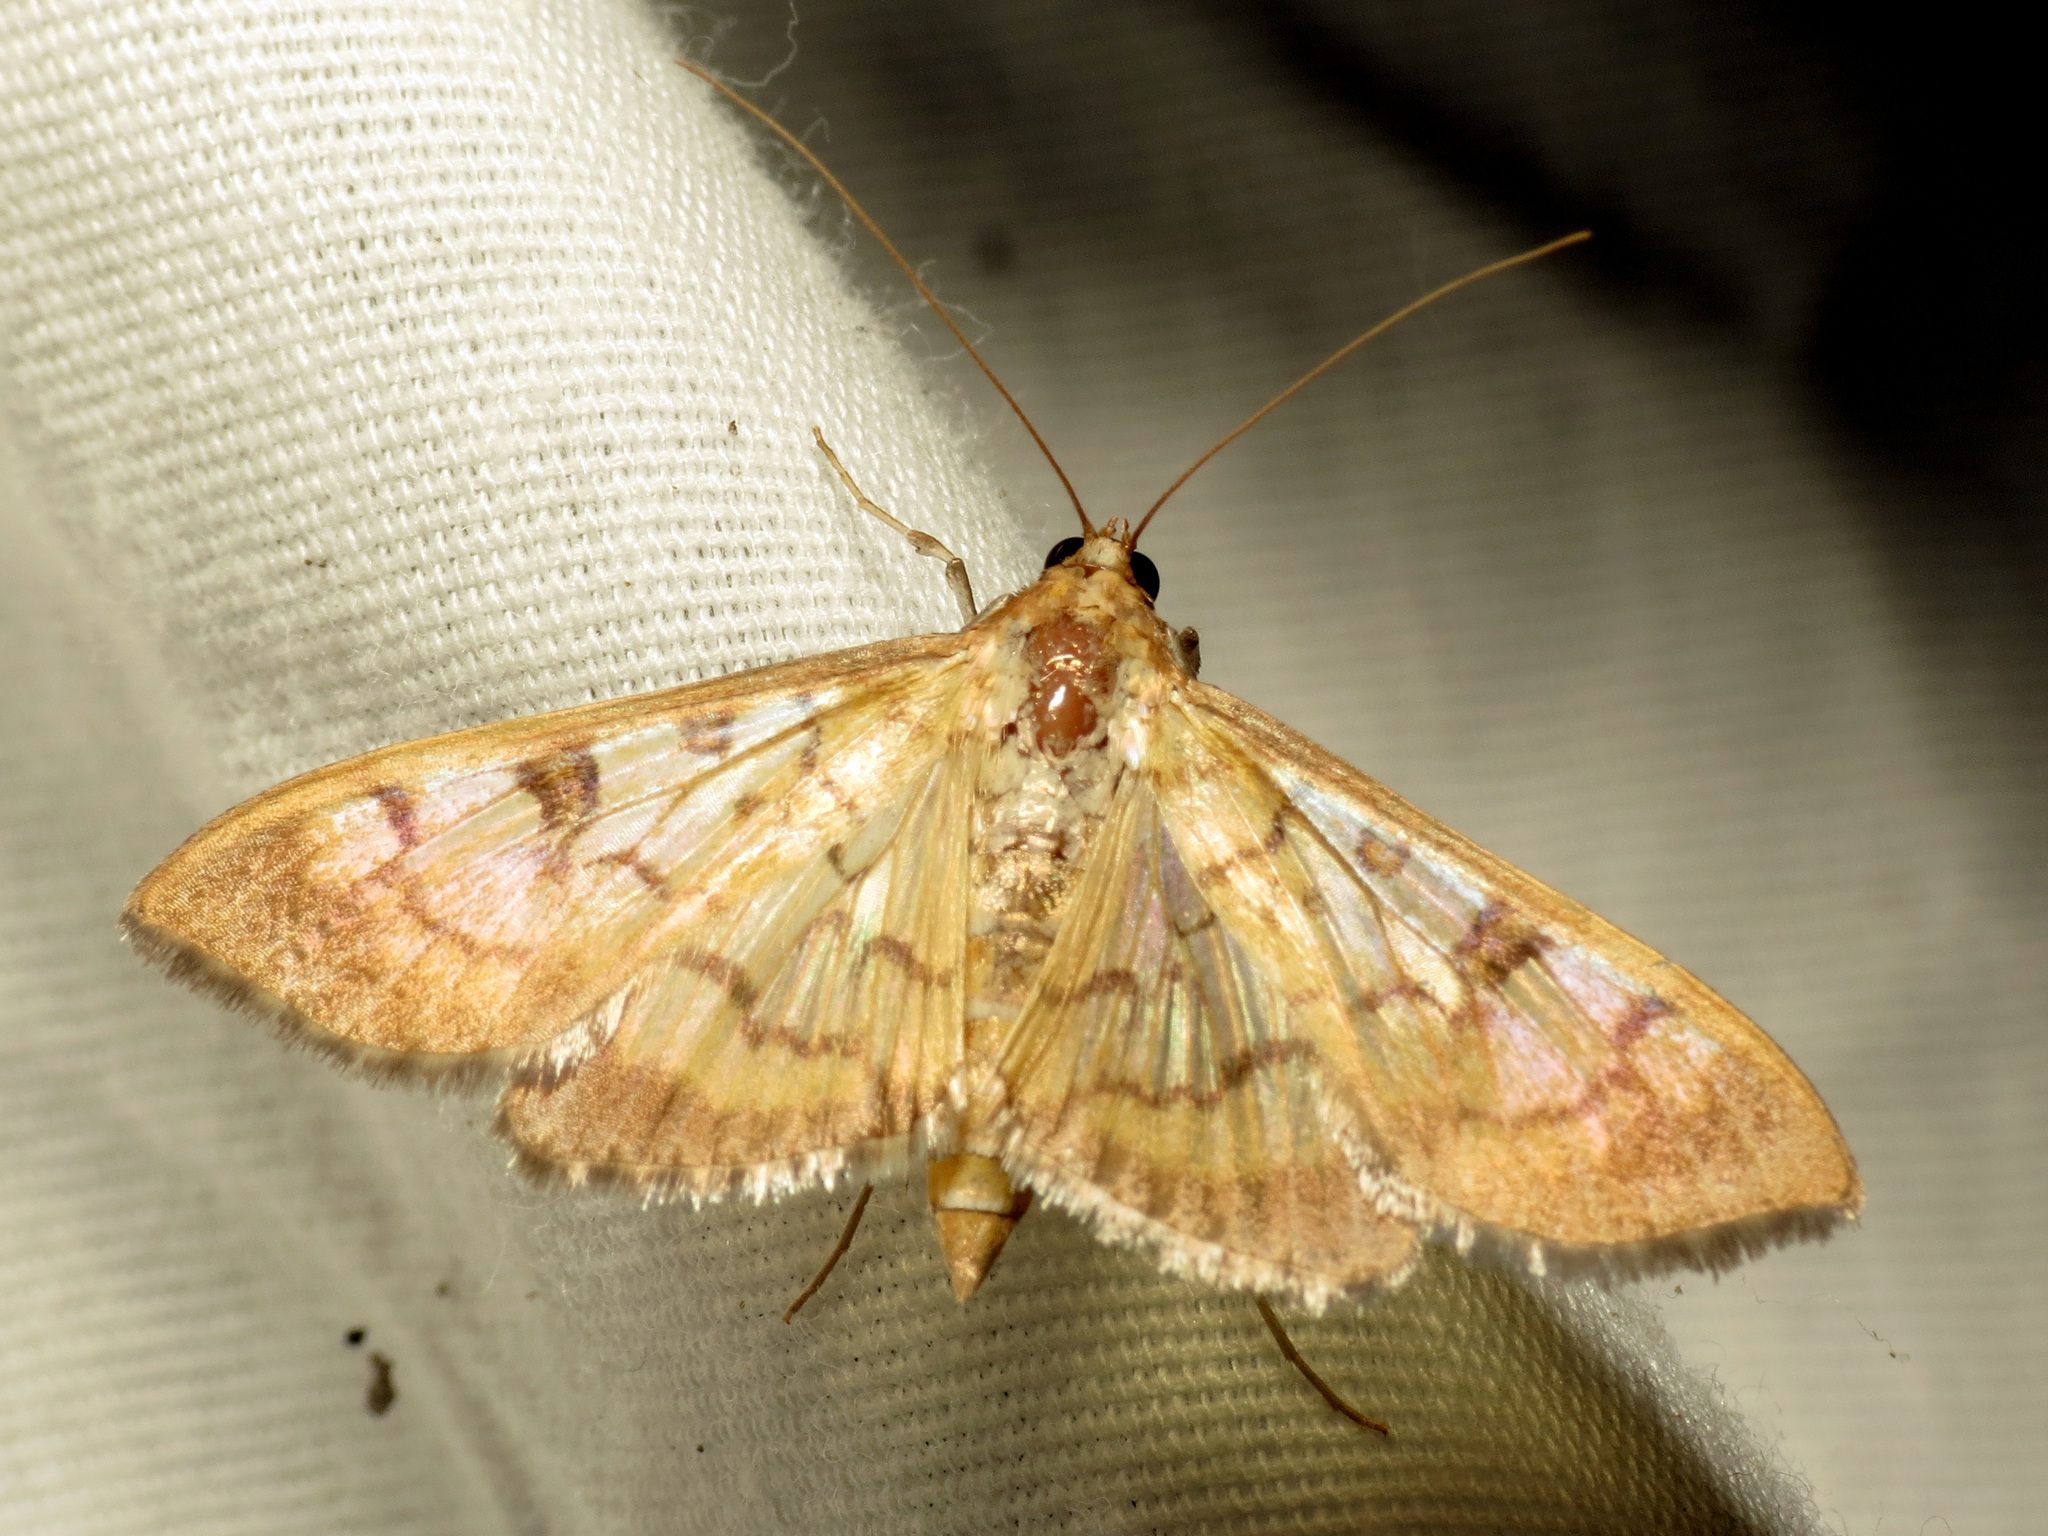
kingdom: Animalia
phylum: Arthropoda
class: Insecta
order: Lepidoptera
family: Crambidae
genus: Mimorista
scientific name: Mimorista subcostalis
